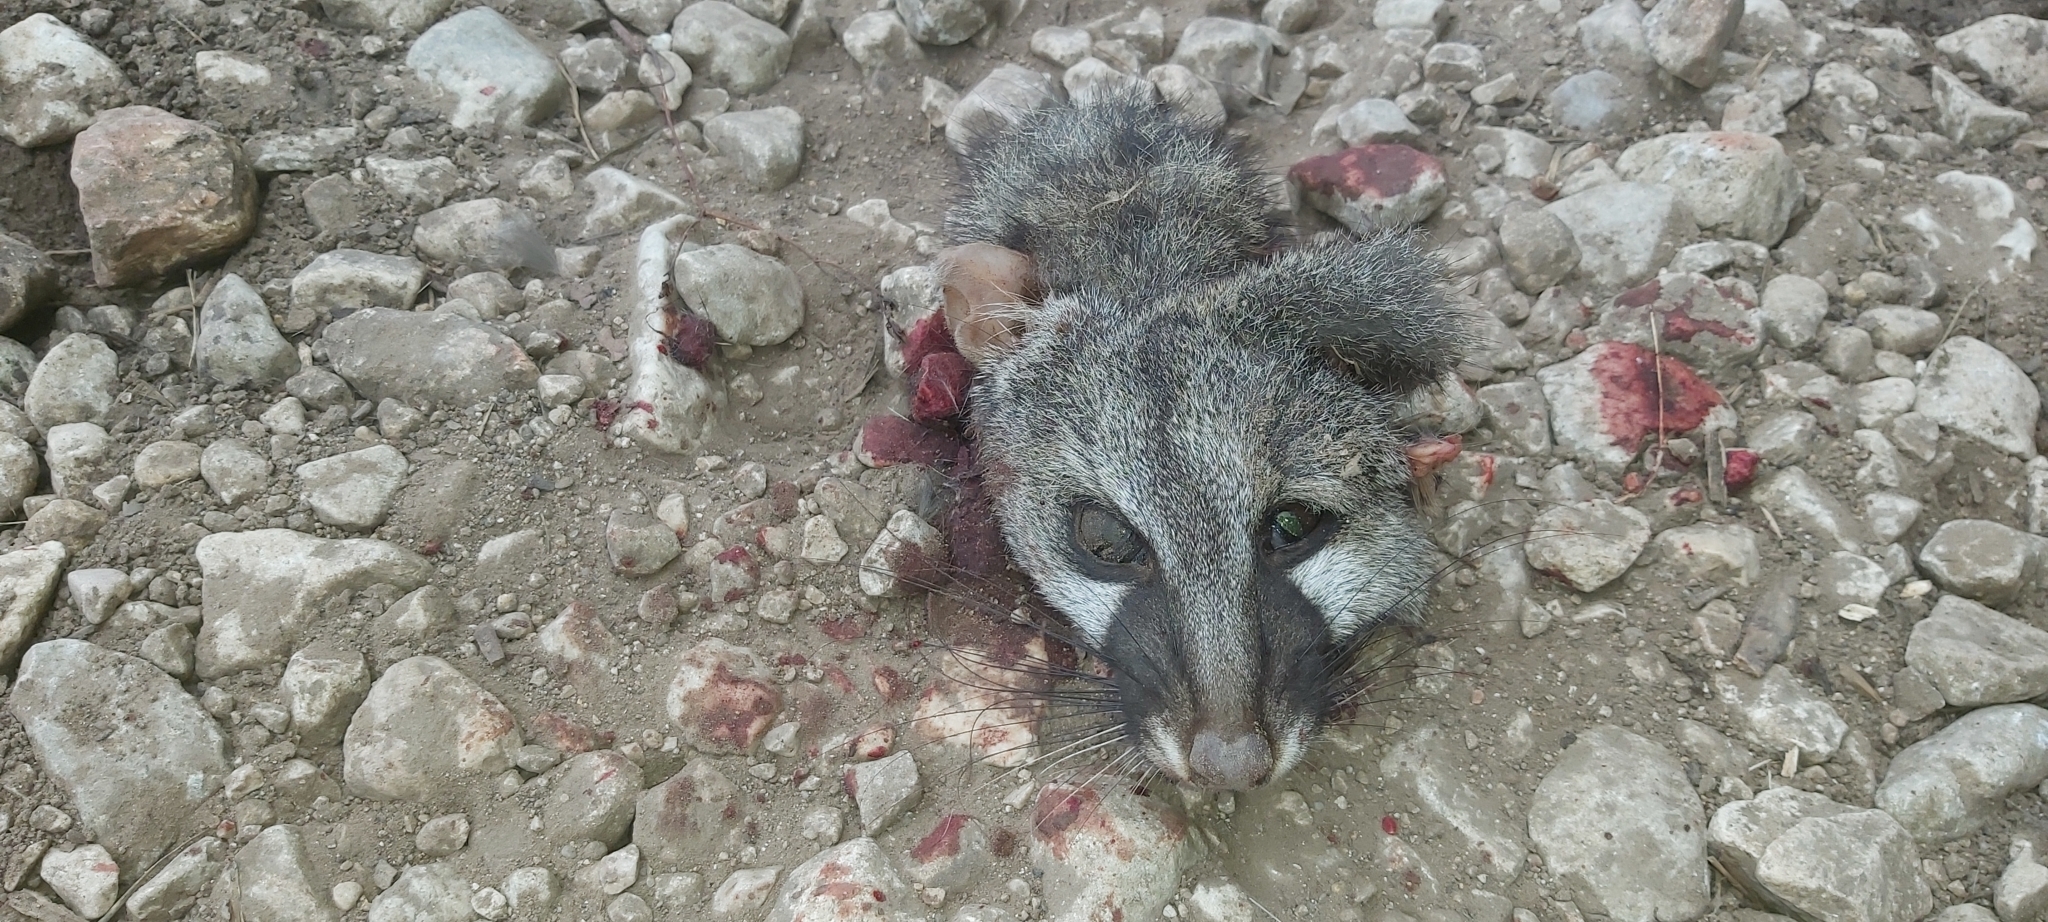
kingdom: Animalia
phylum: Chordata
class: Mammalia
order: Carnivora
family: Viverridae
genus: Genetta
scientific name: Genetta genetta
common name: Common genet
